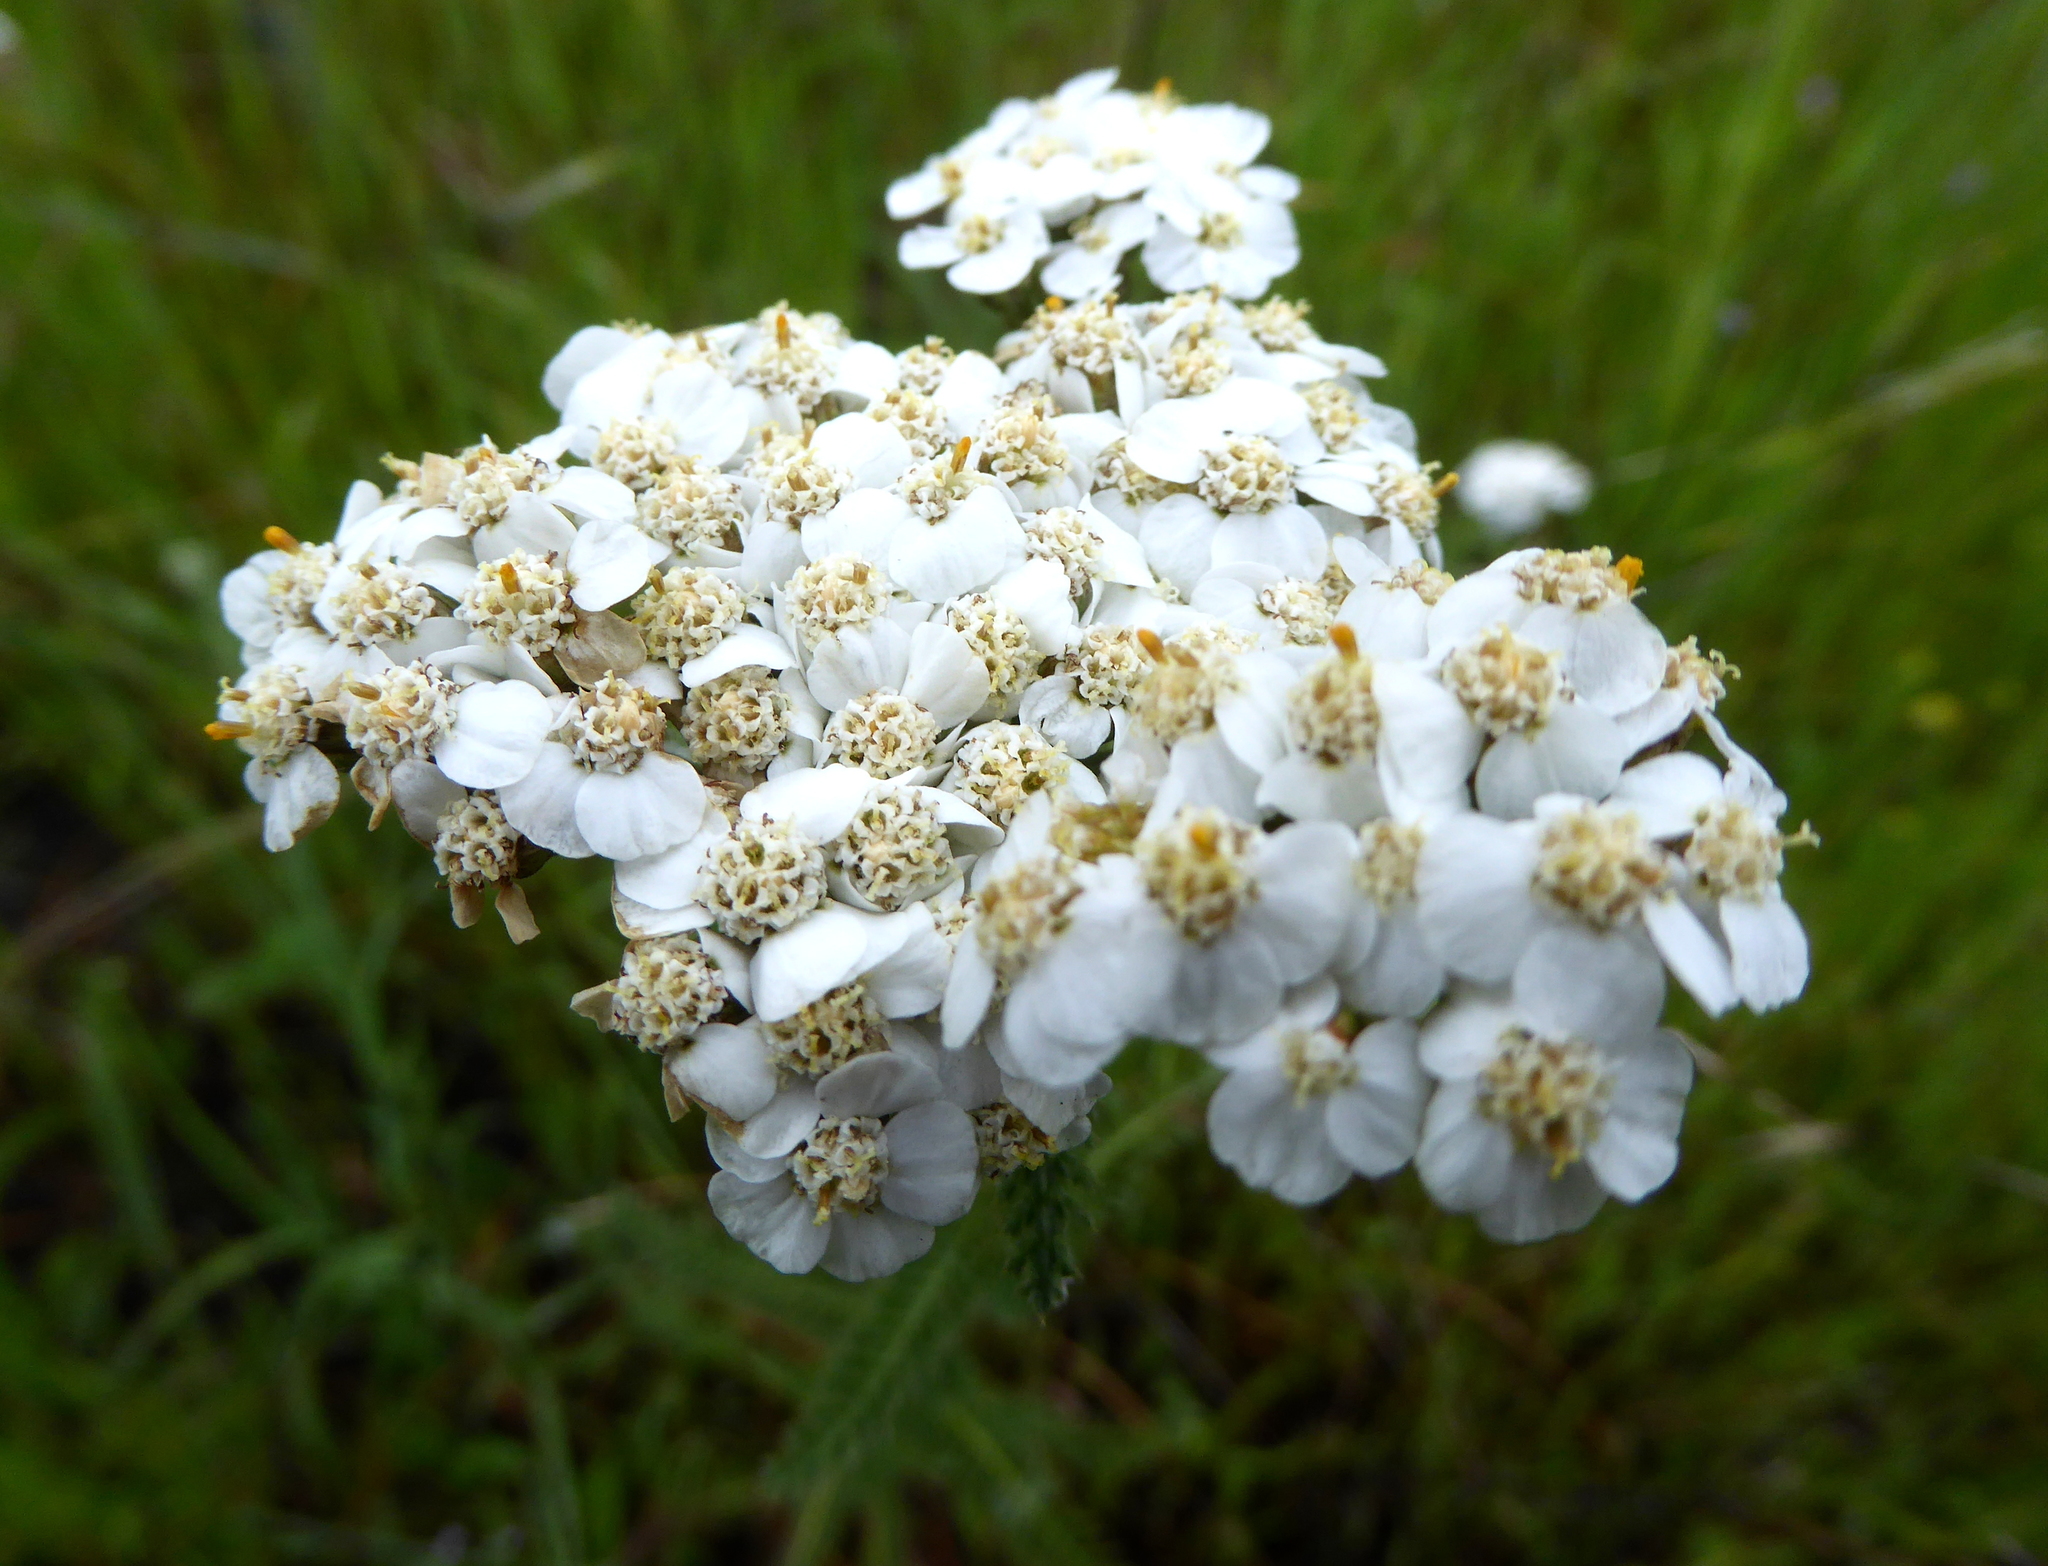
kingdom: Plantae
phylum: Tracheophyta
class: Magnoliopsida
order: Asterales
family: Asteraceae
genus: Achillea
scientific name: Achillea millefolium
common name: Yarrow
